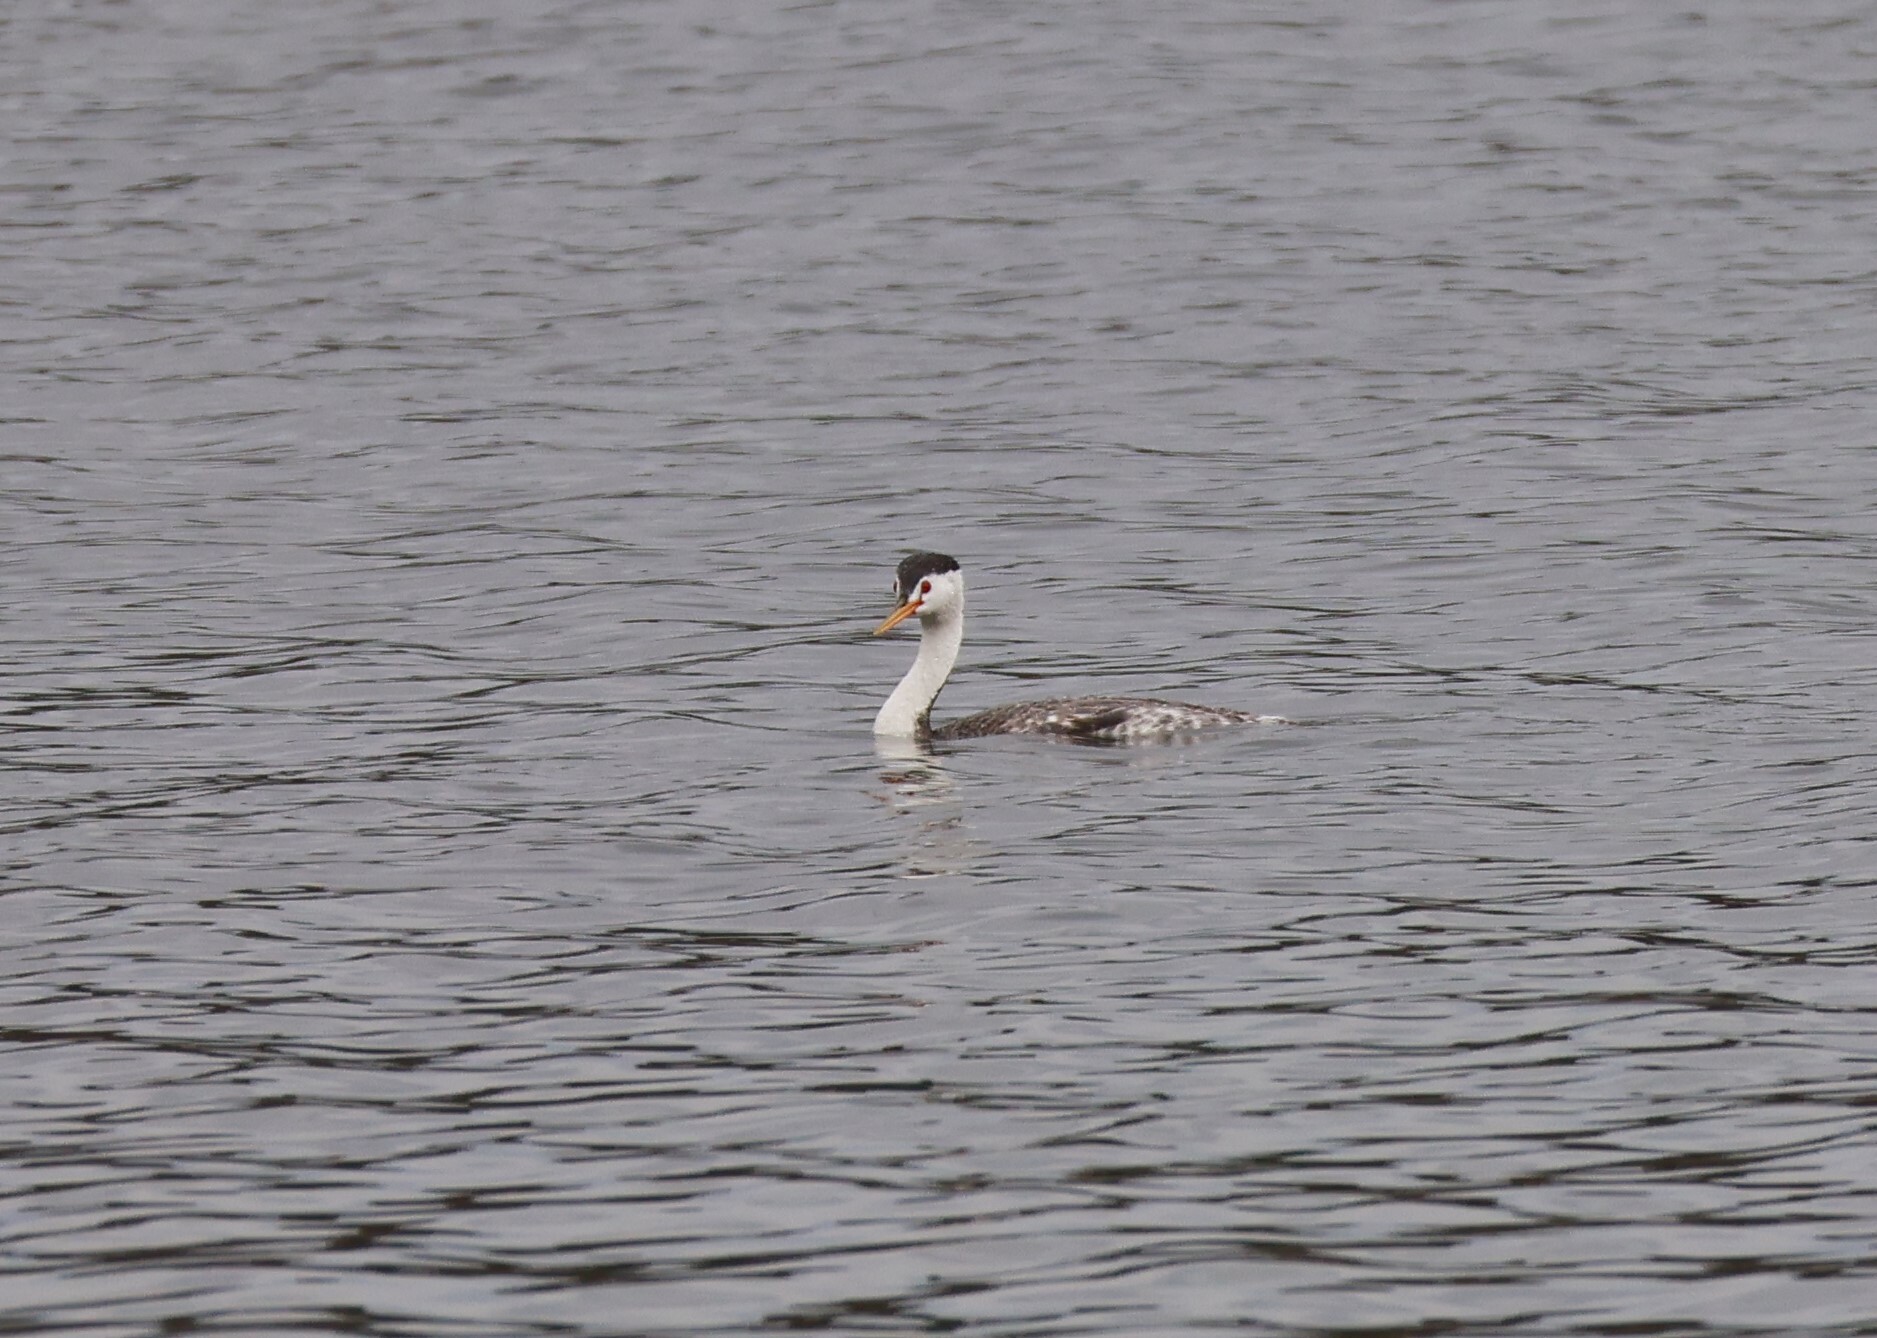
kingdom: Animalia
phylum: Chordata
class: Aves
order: Podicipediformes
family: Podicipedidae
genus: Aechmophorus
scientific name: Aechmophorus clarkii
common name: Clark's grebe
